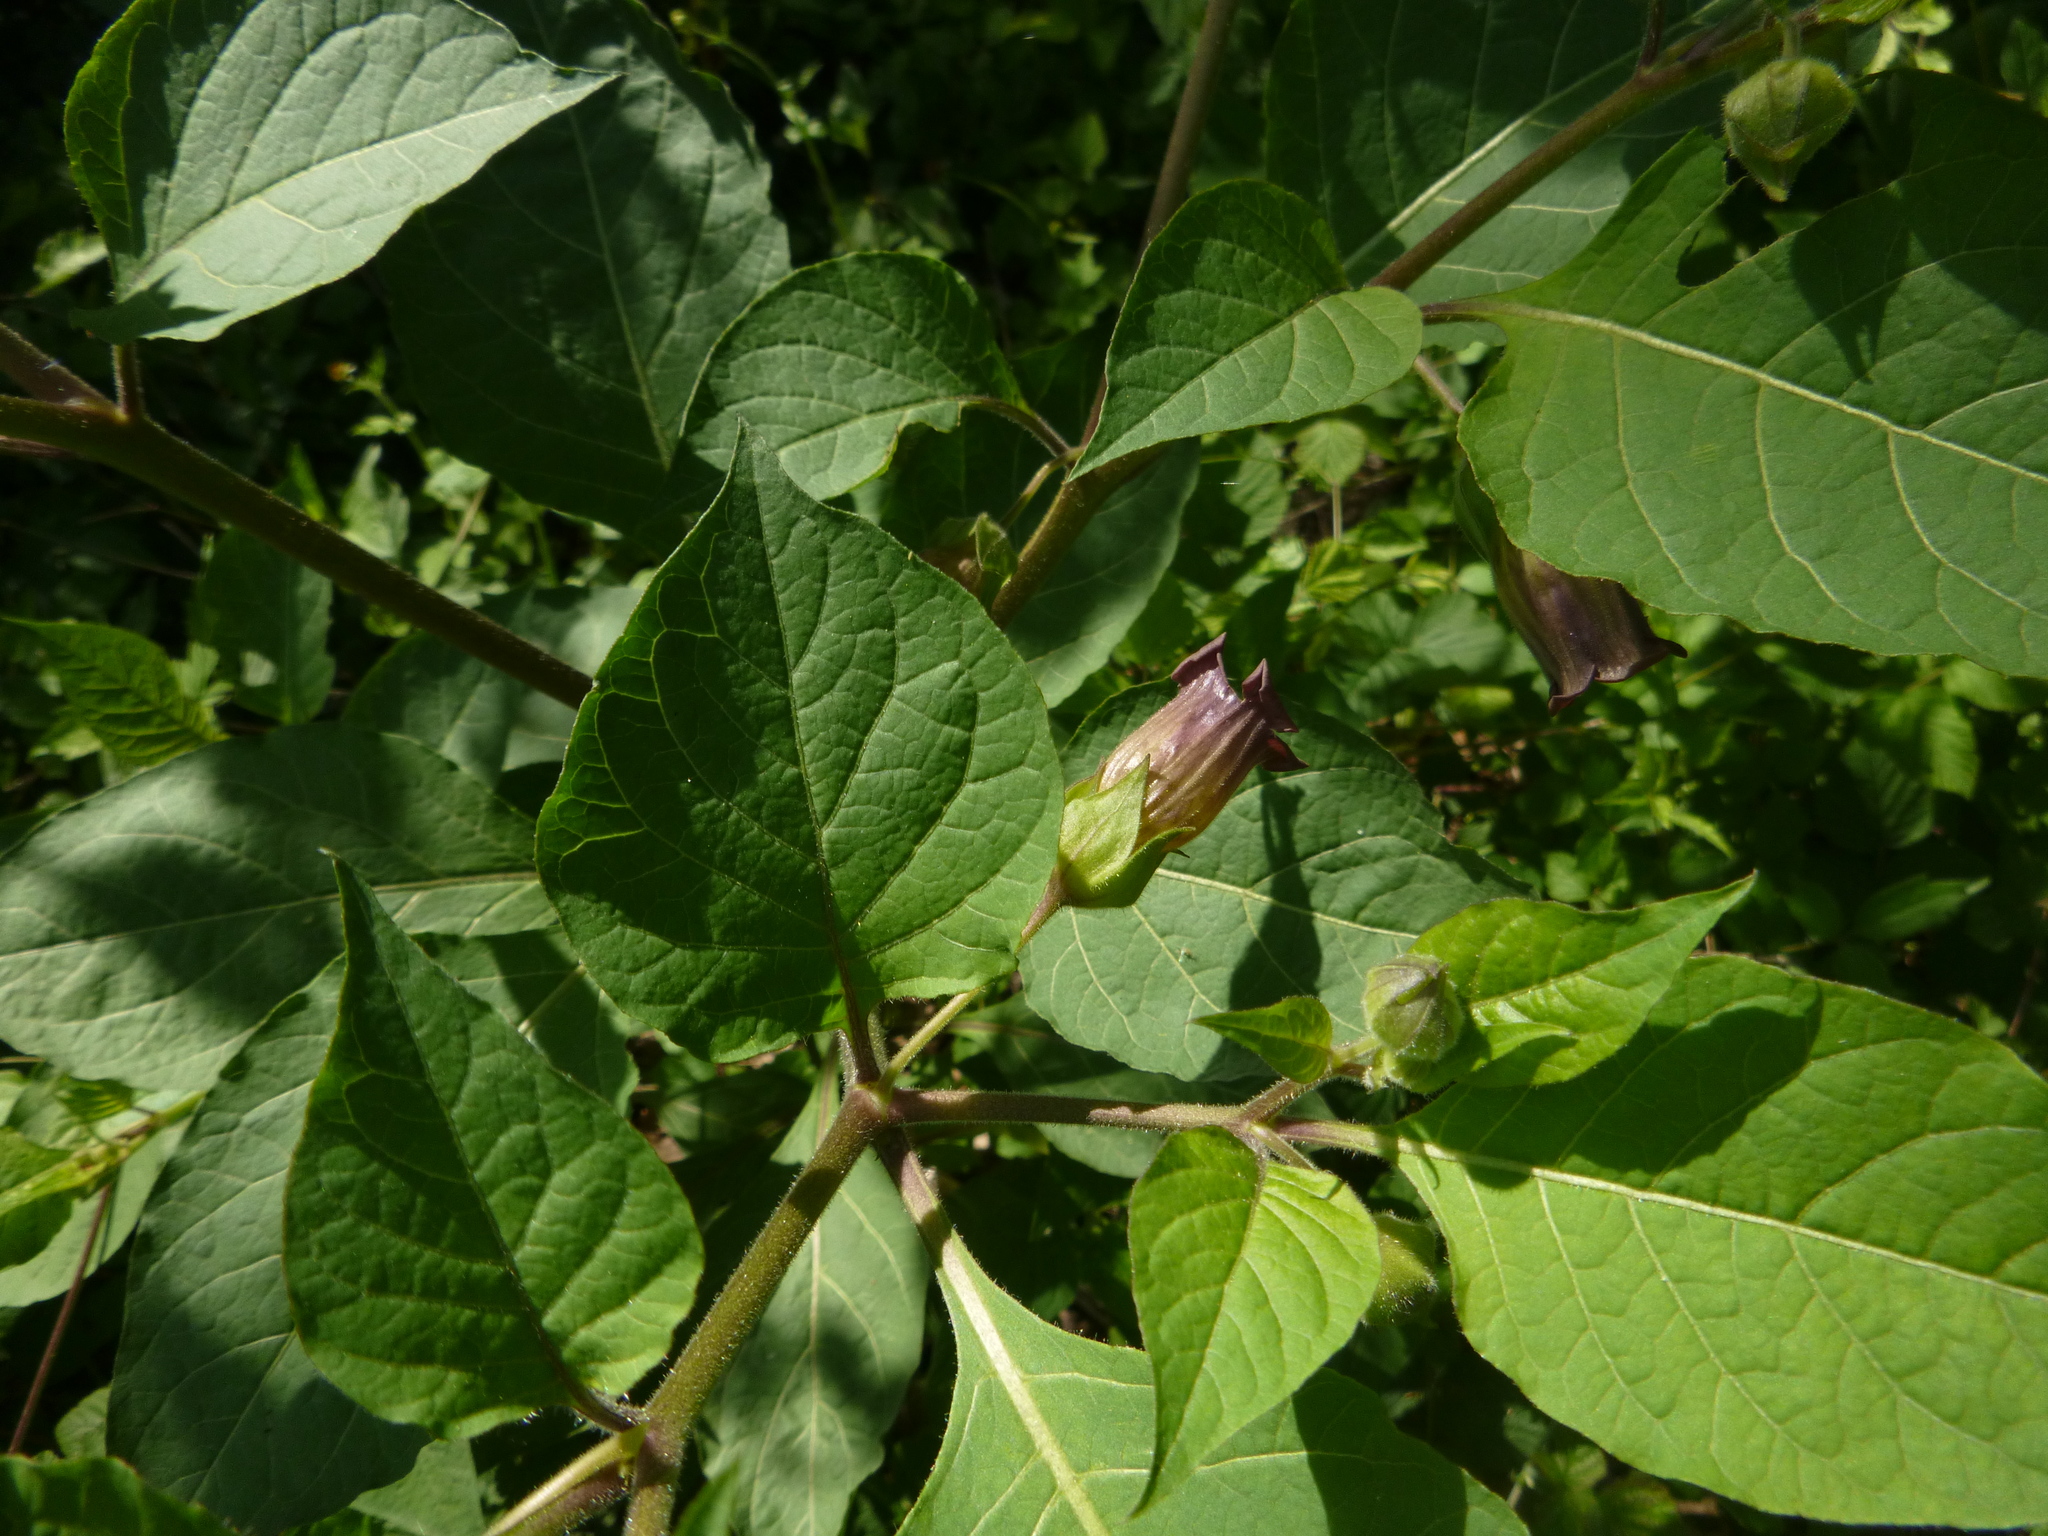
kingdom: Plantae
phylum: Tracheophyta
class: Magnoliopsida
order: Solanales
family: Solanaceae
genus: Atropa
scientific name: Atropa belladonna
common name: Deadly nightshade
